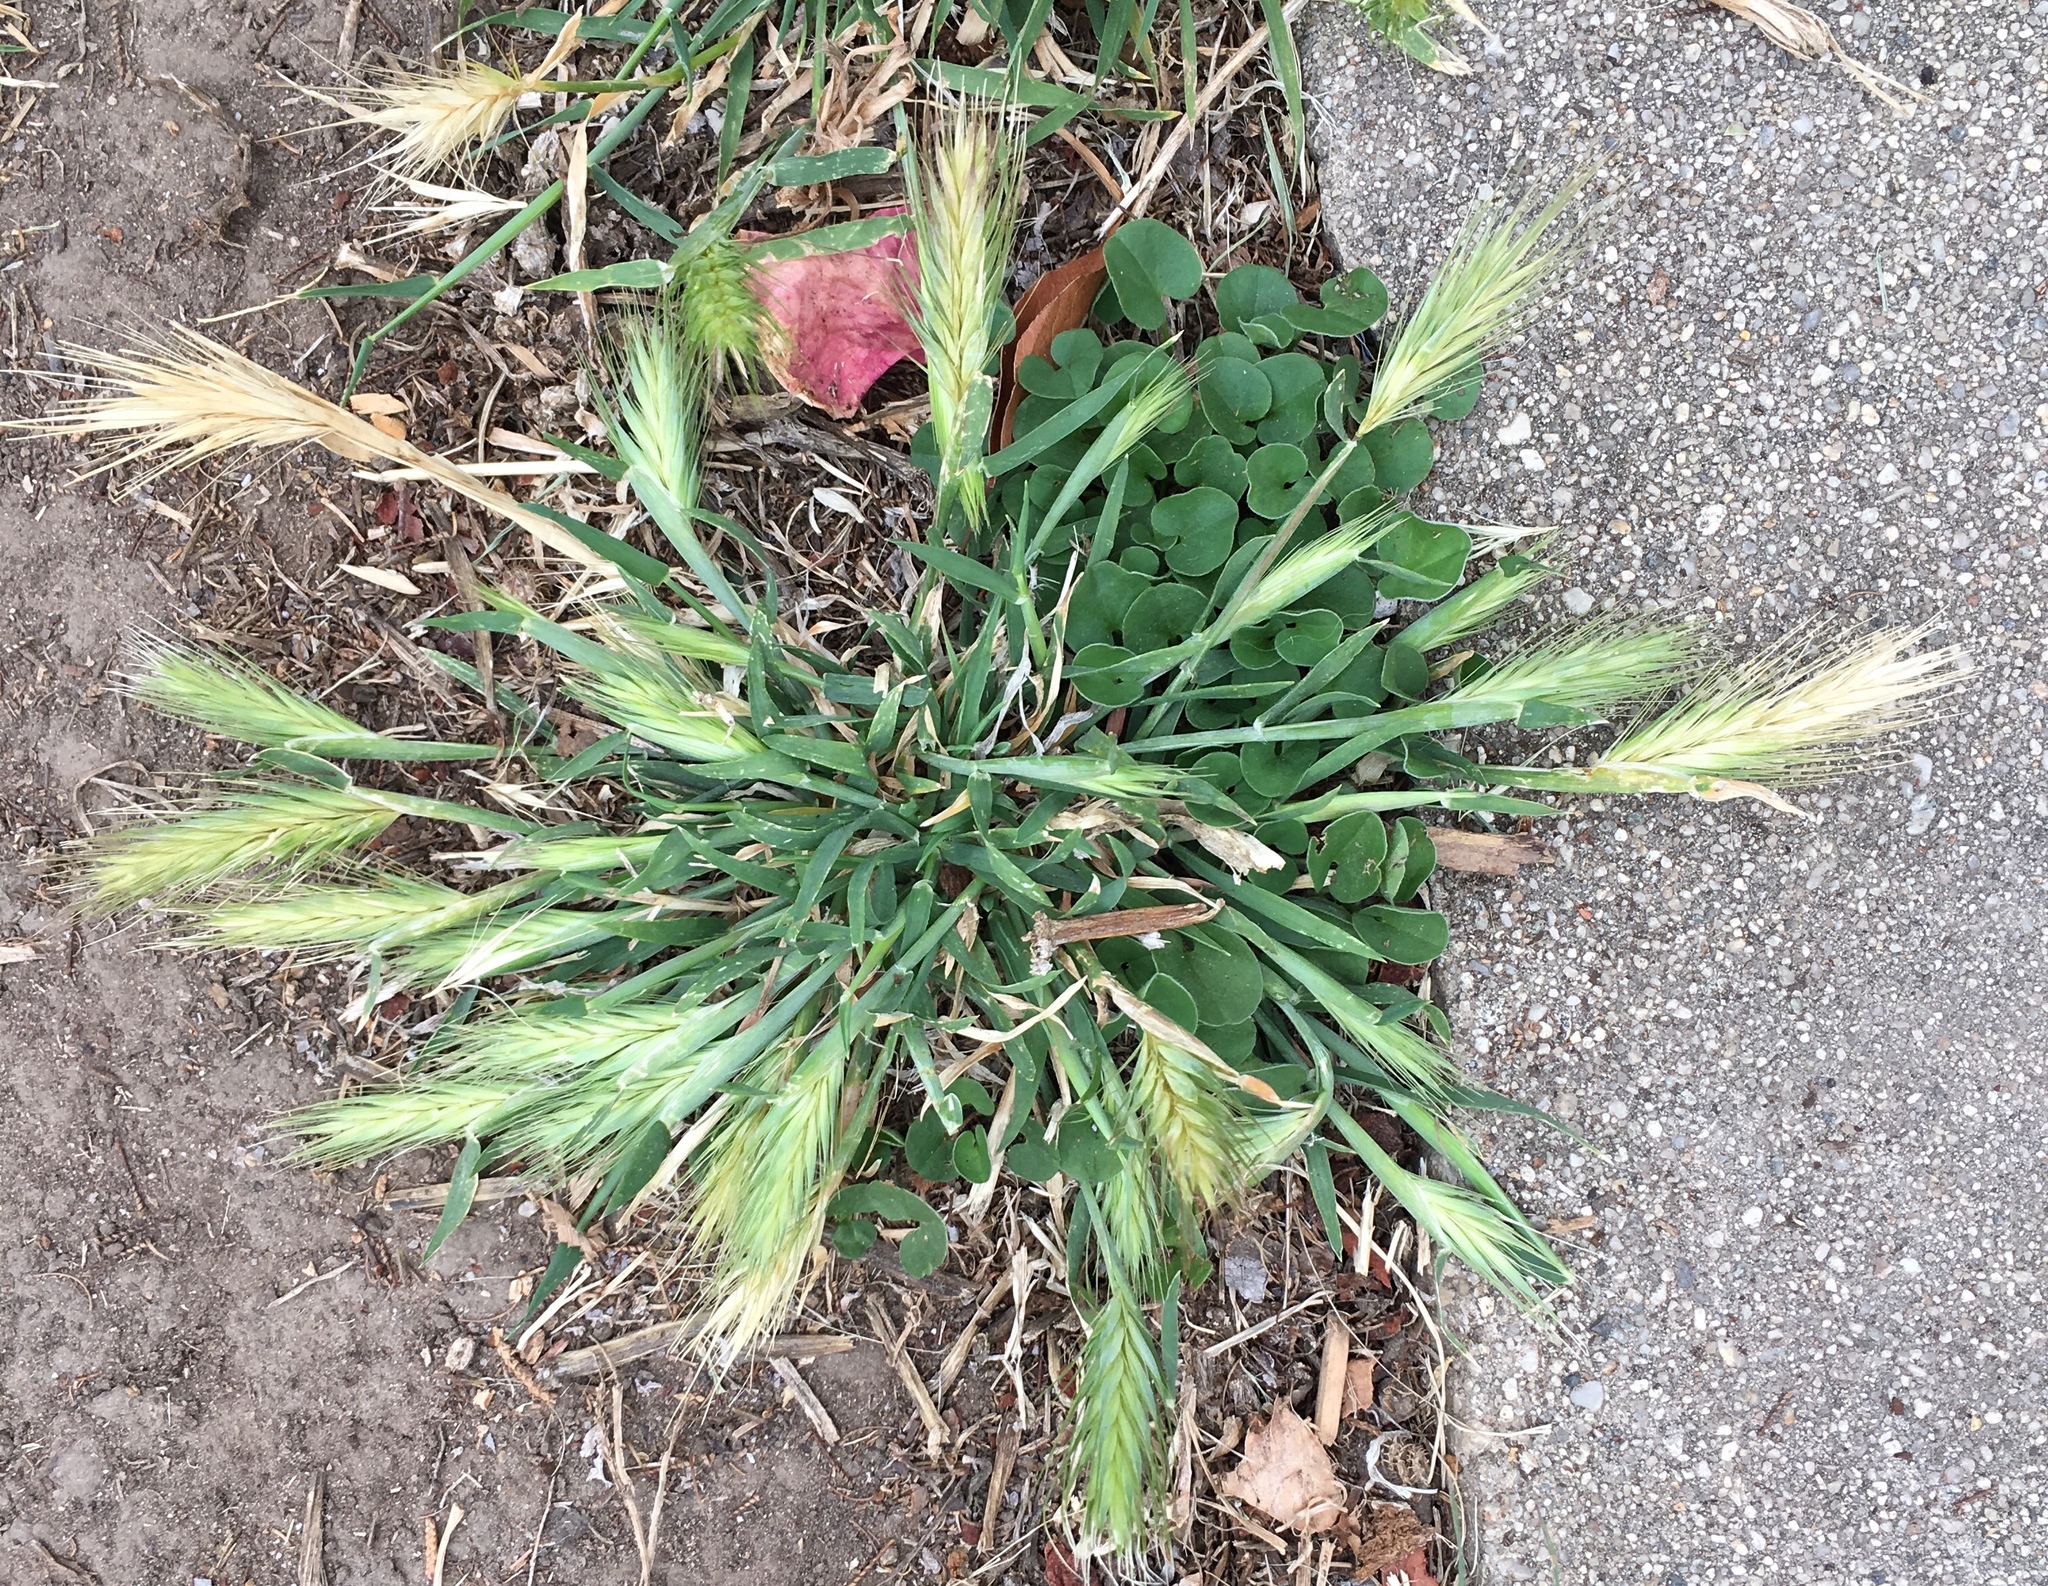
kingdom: Plantae
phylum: Tracheophyta
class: Liliopsida
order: Poales
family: Poaceae
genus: Hordeum
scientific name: Hordeum murinum
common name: Wall barley
